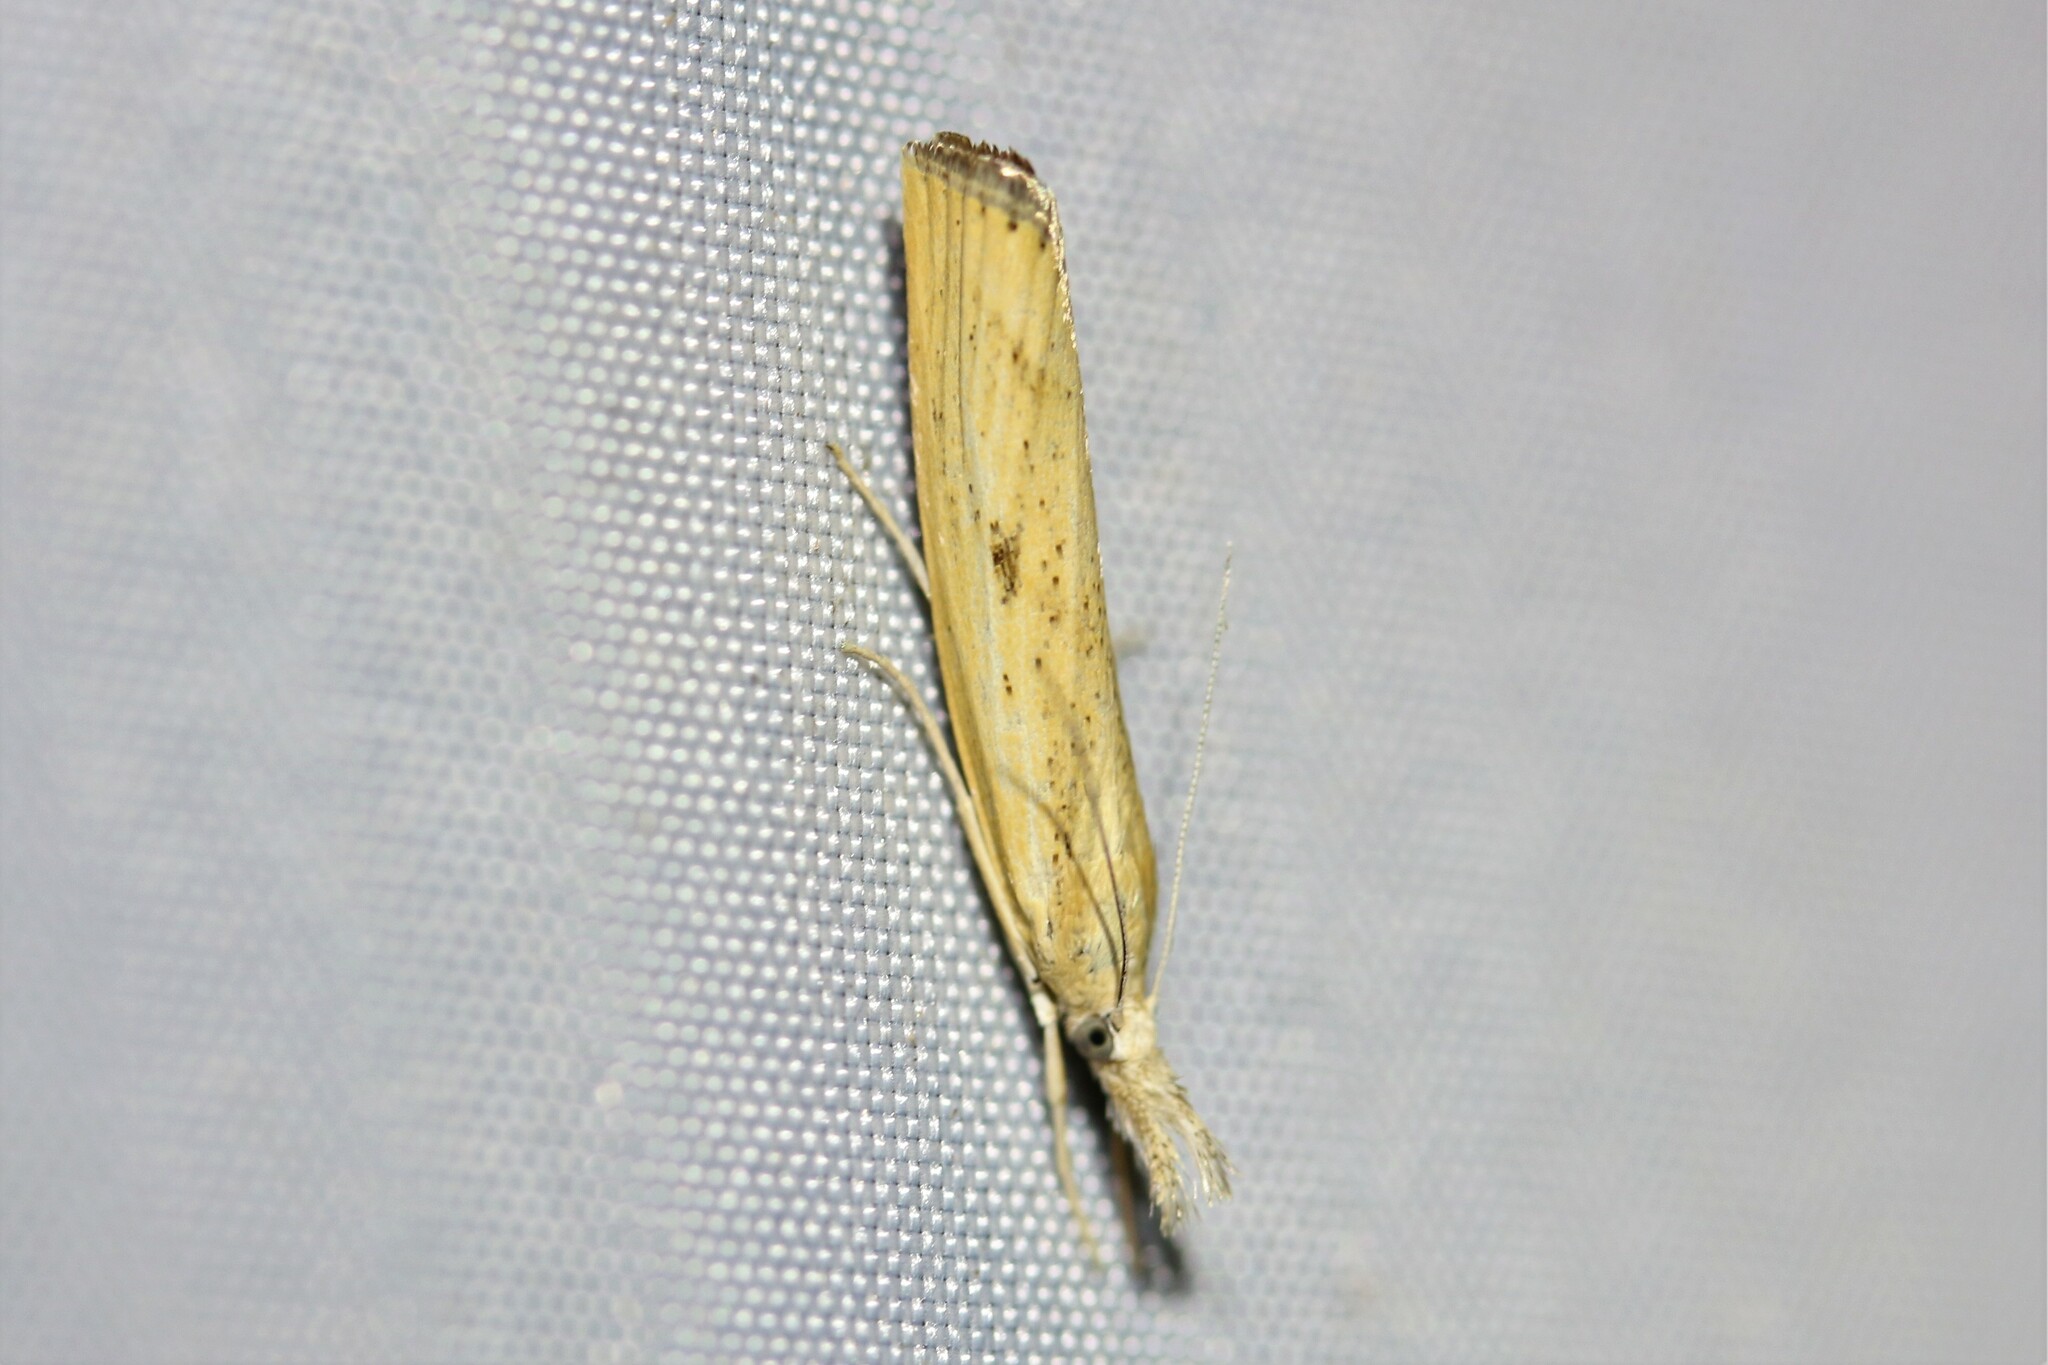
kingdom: Animalia
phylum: Arthropoda
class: Insecta
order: Lepidoptera
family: Crambidae
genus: Agriphila
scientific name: Agriphila inquinatella
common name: Barred grass-veneer
